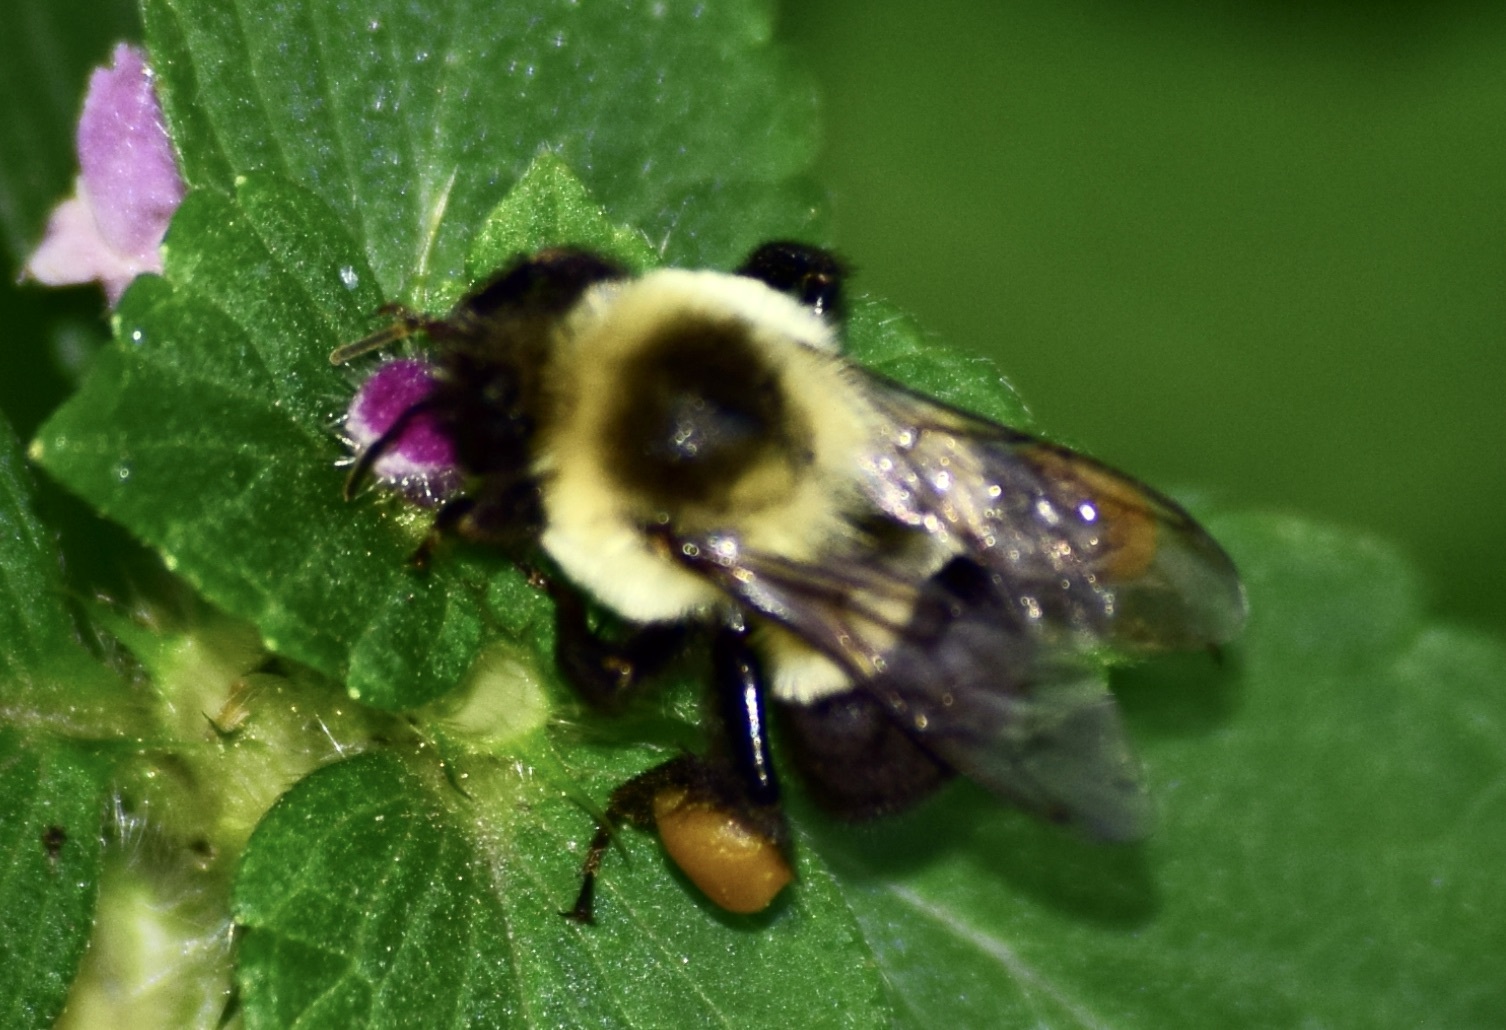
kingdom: Animalia
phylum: Arthropoda
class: Insecta
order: Hymenoptera
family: Apidae
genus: Bombus
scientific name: Bombus impatiens
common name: Common eastern bumble bee
